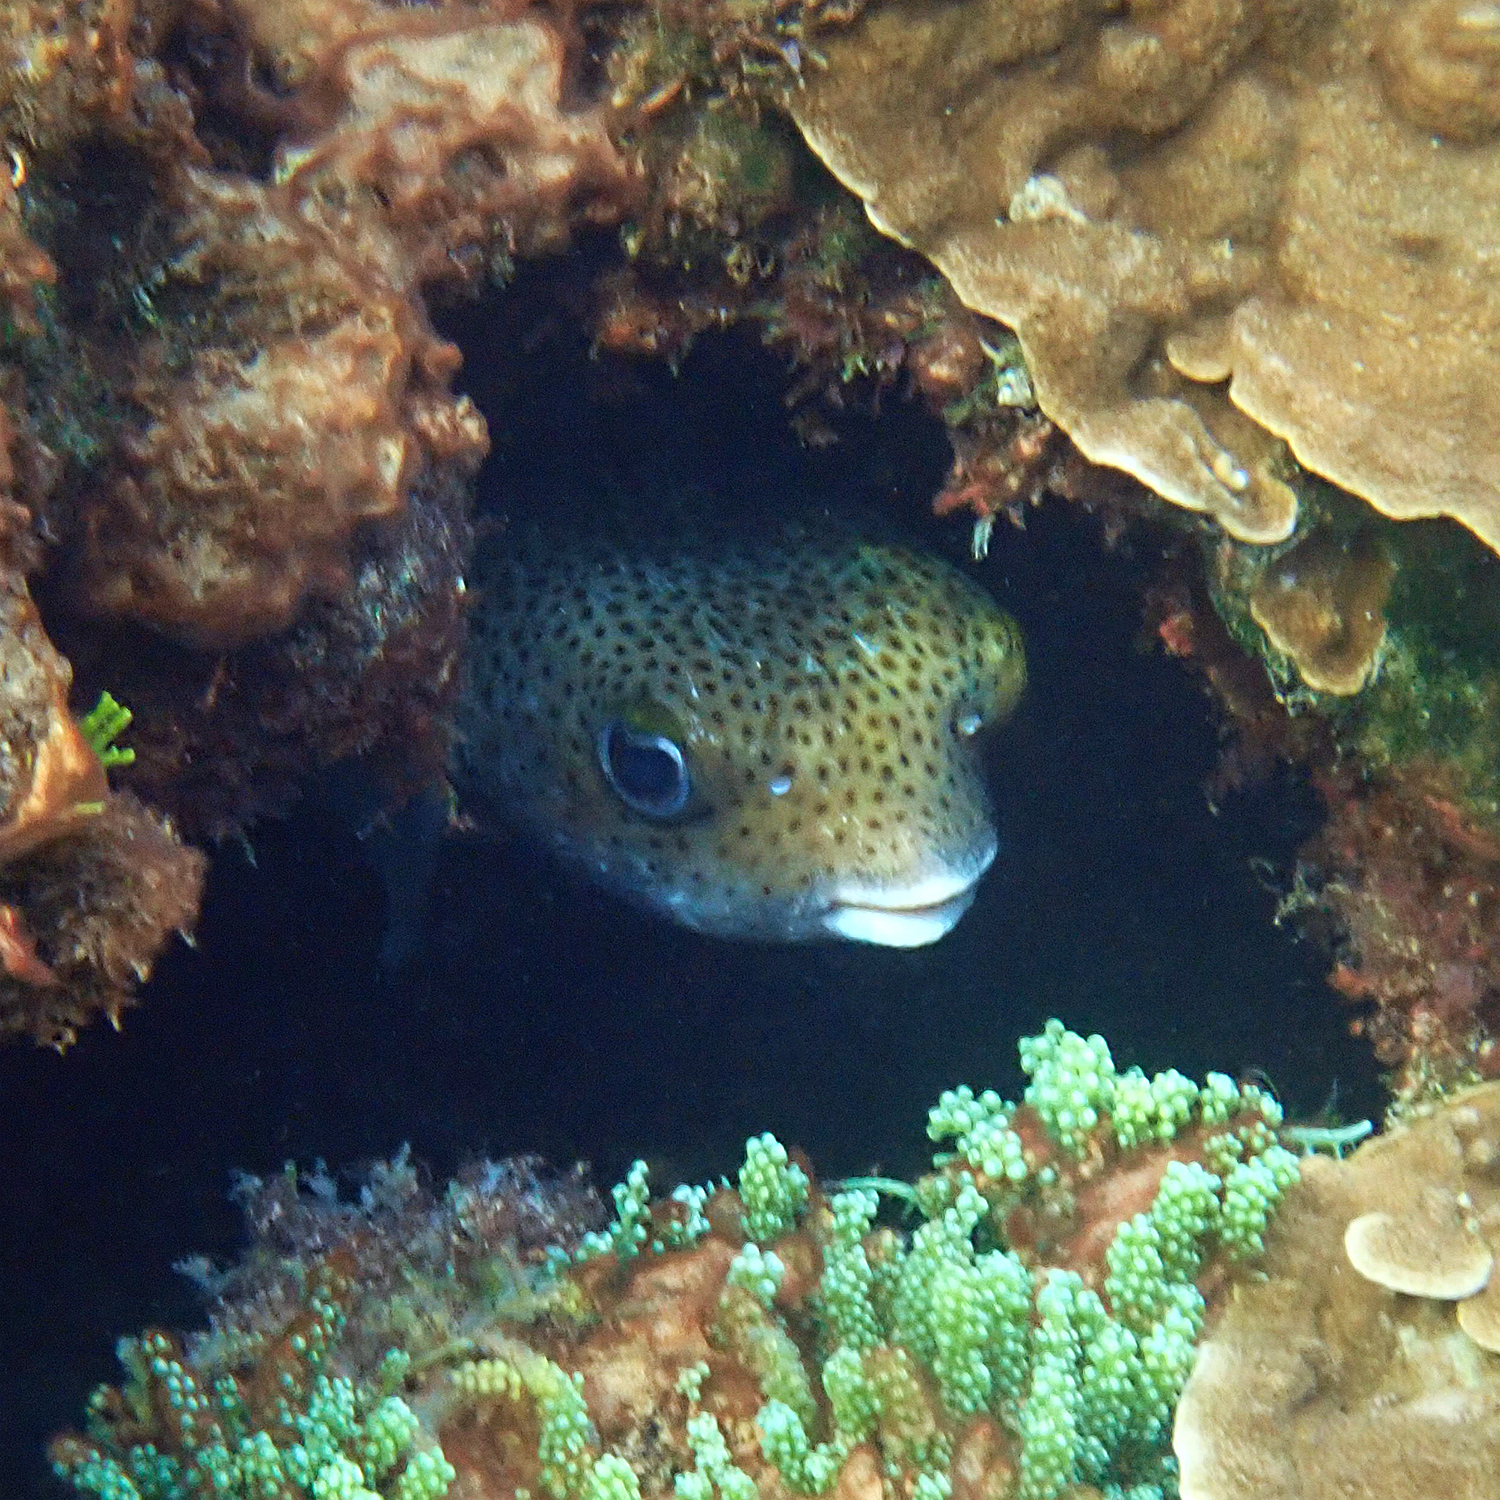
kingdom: Animalia
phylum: Chordata
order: Tetraodontiformes
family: Diodontidae
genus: Diodon
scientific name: Diodon hystrix
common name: Giant porcupinefish
